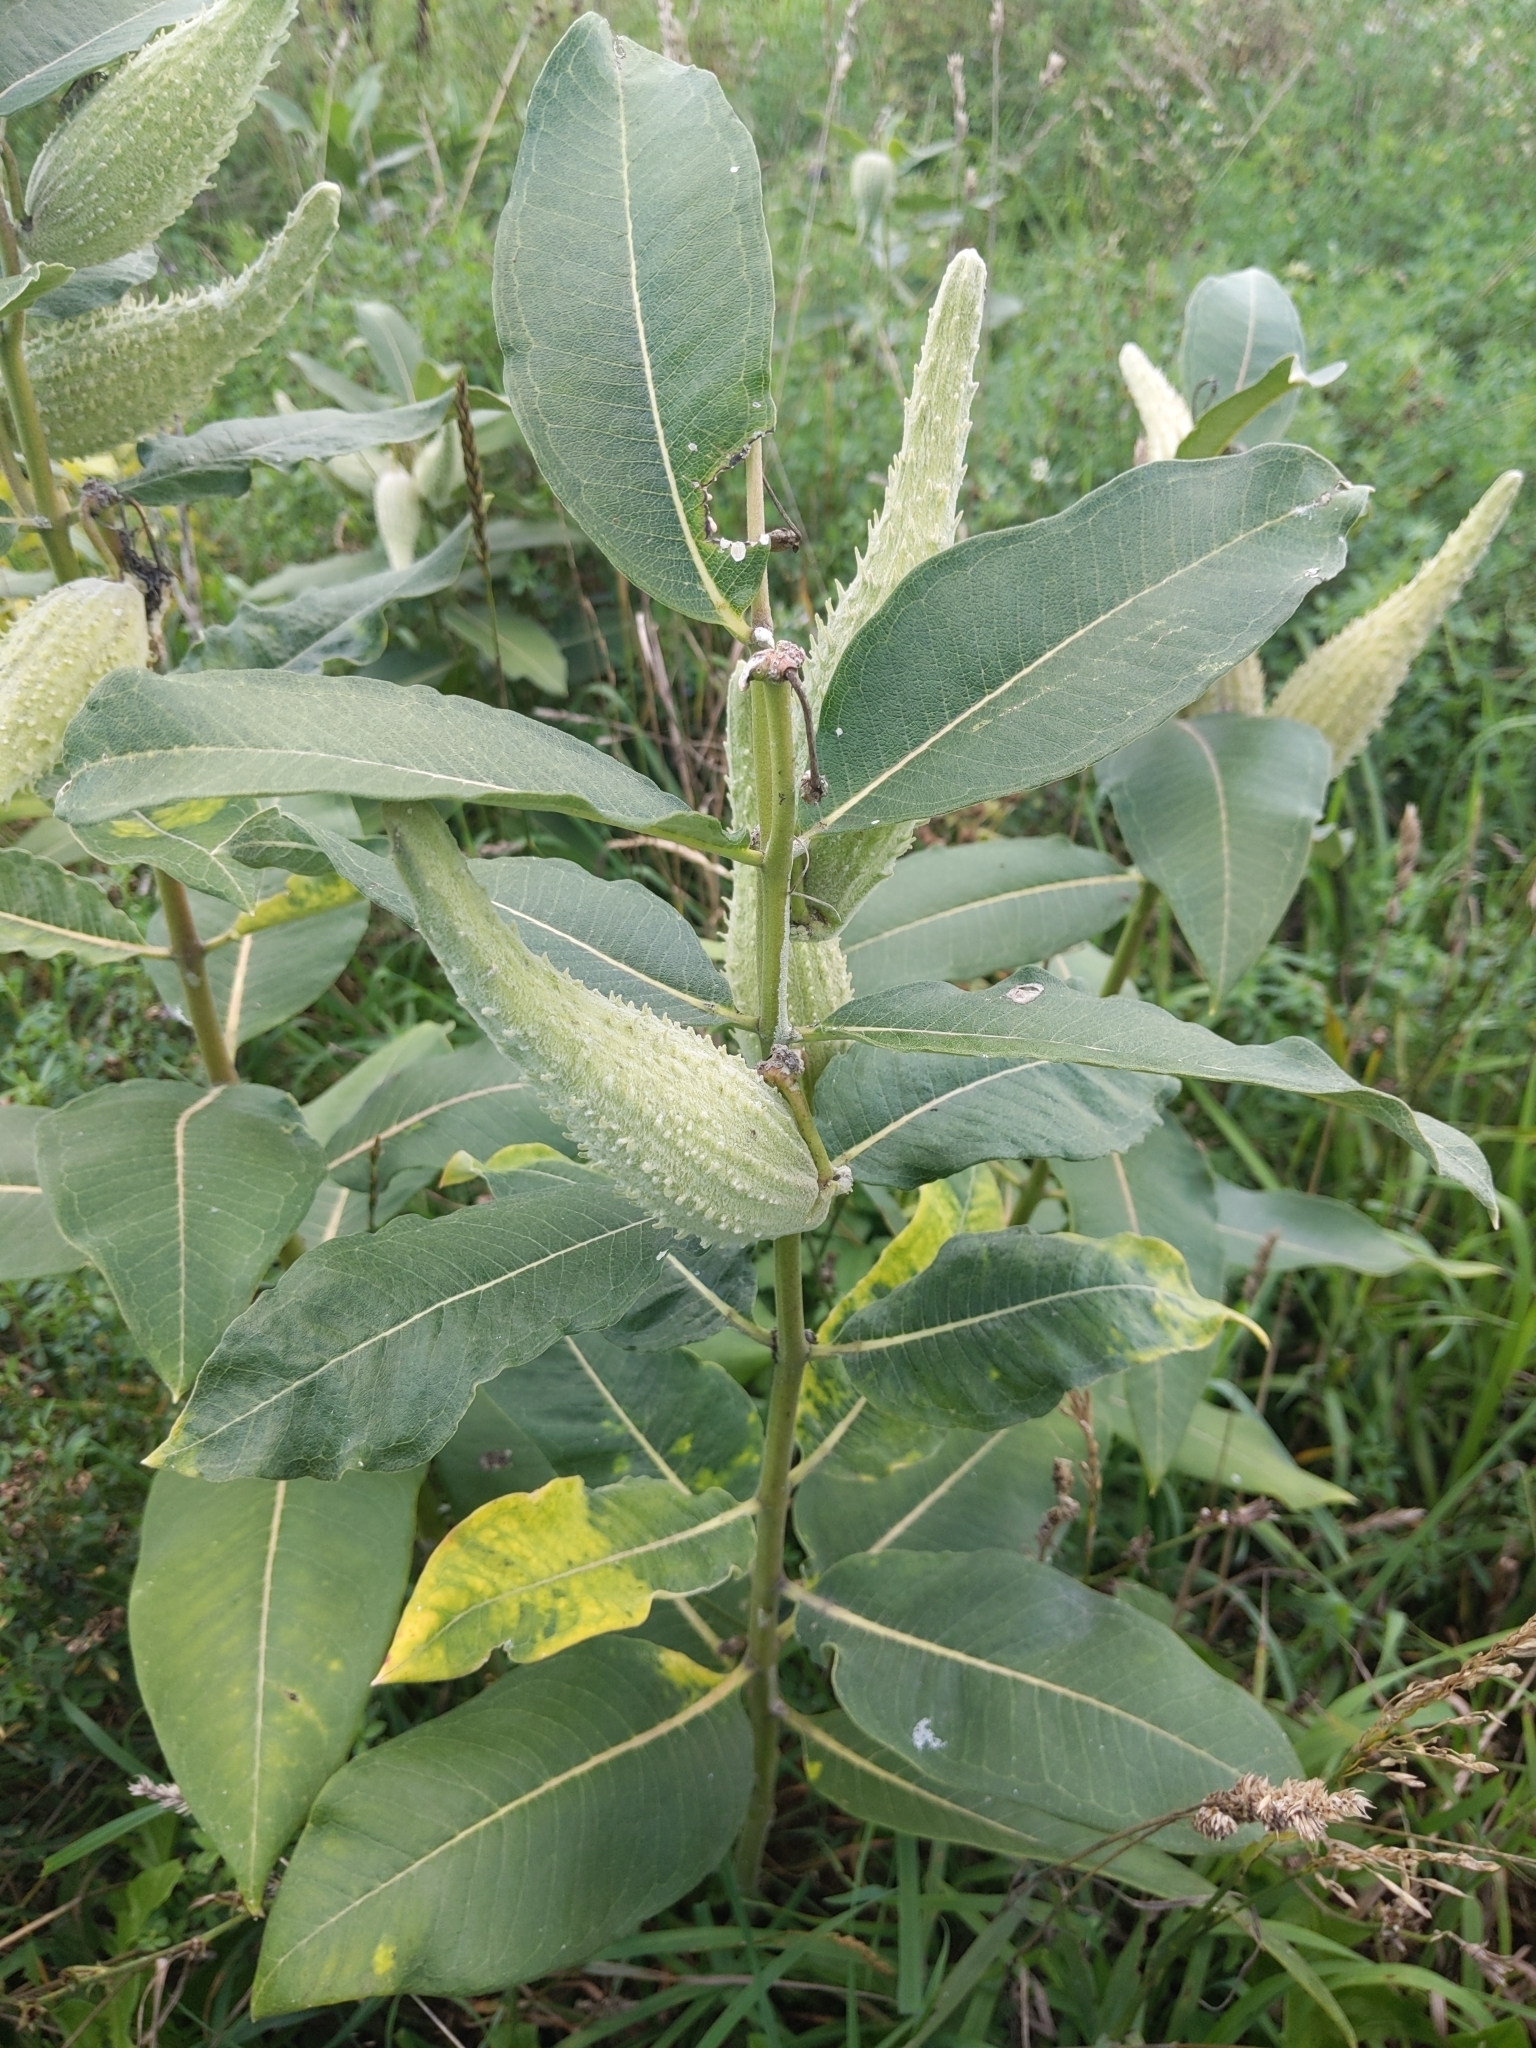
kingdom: Plantae
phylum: Tracheophyta
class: Magnoliopsida
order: Gentianales
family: Apocynaceae
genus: Asclepias
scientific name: Asclepias syriaca
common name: Common milkweed
